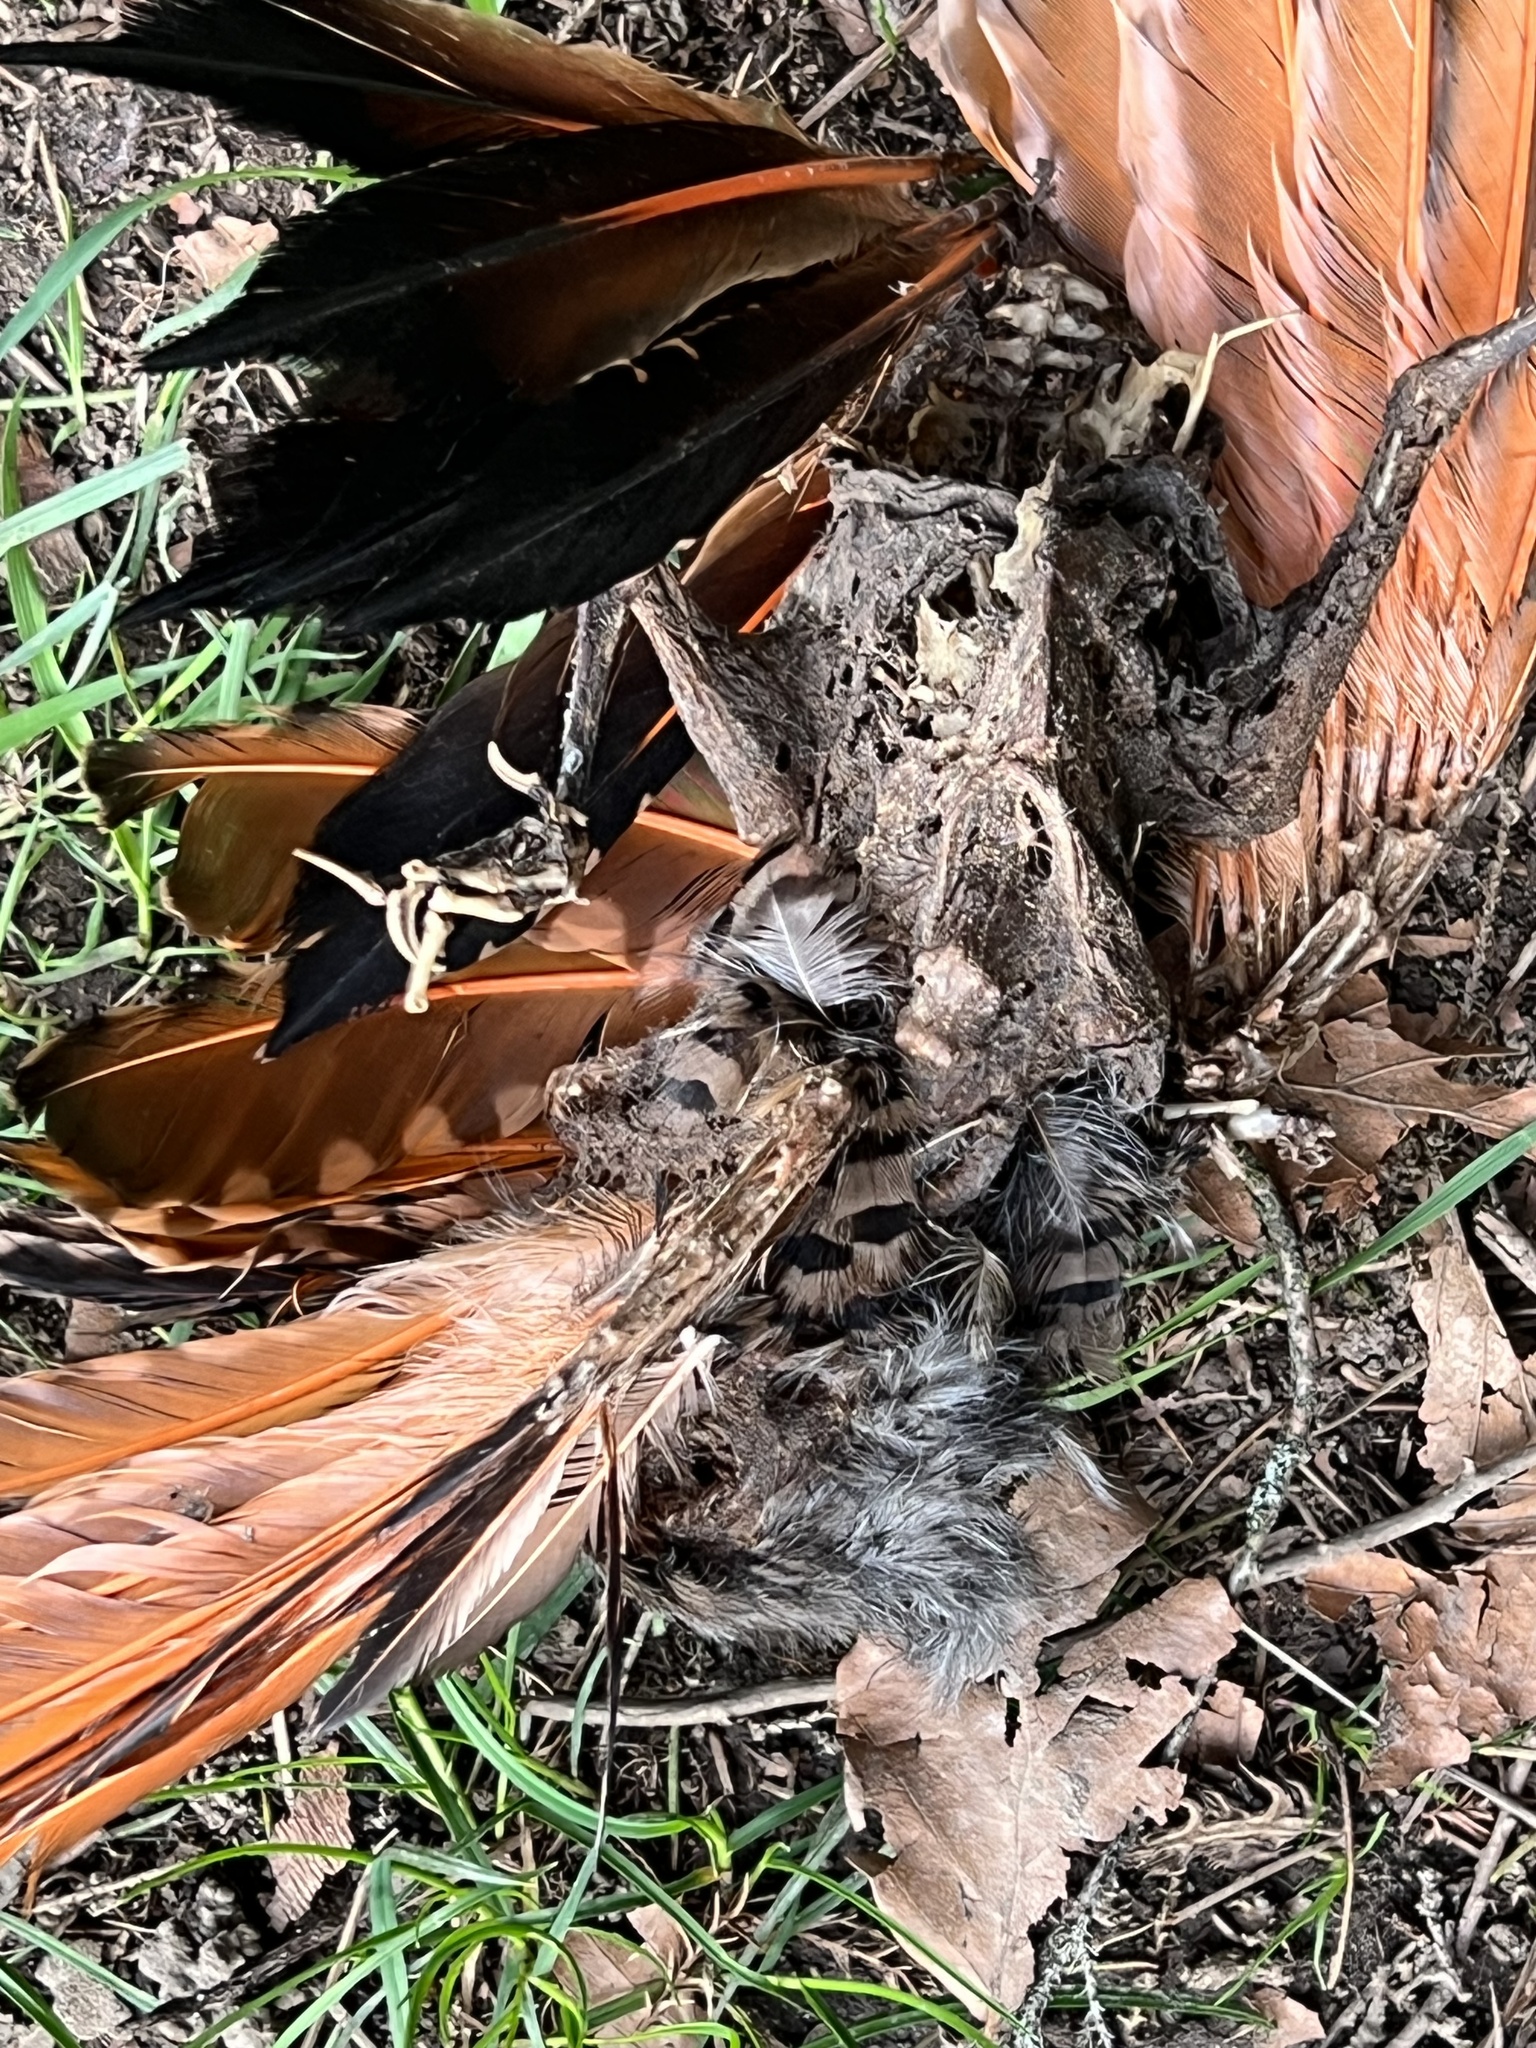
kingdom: Animalia
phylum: Chordata
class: Aves
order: Piciformes
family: Picidae
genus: Colaptes
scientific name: Colaptes auratus
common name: Northern flicker
